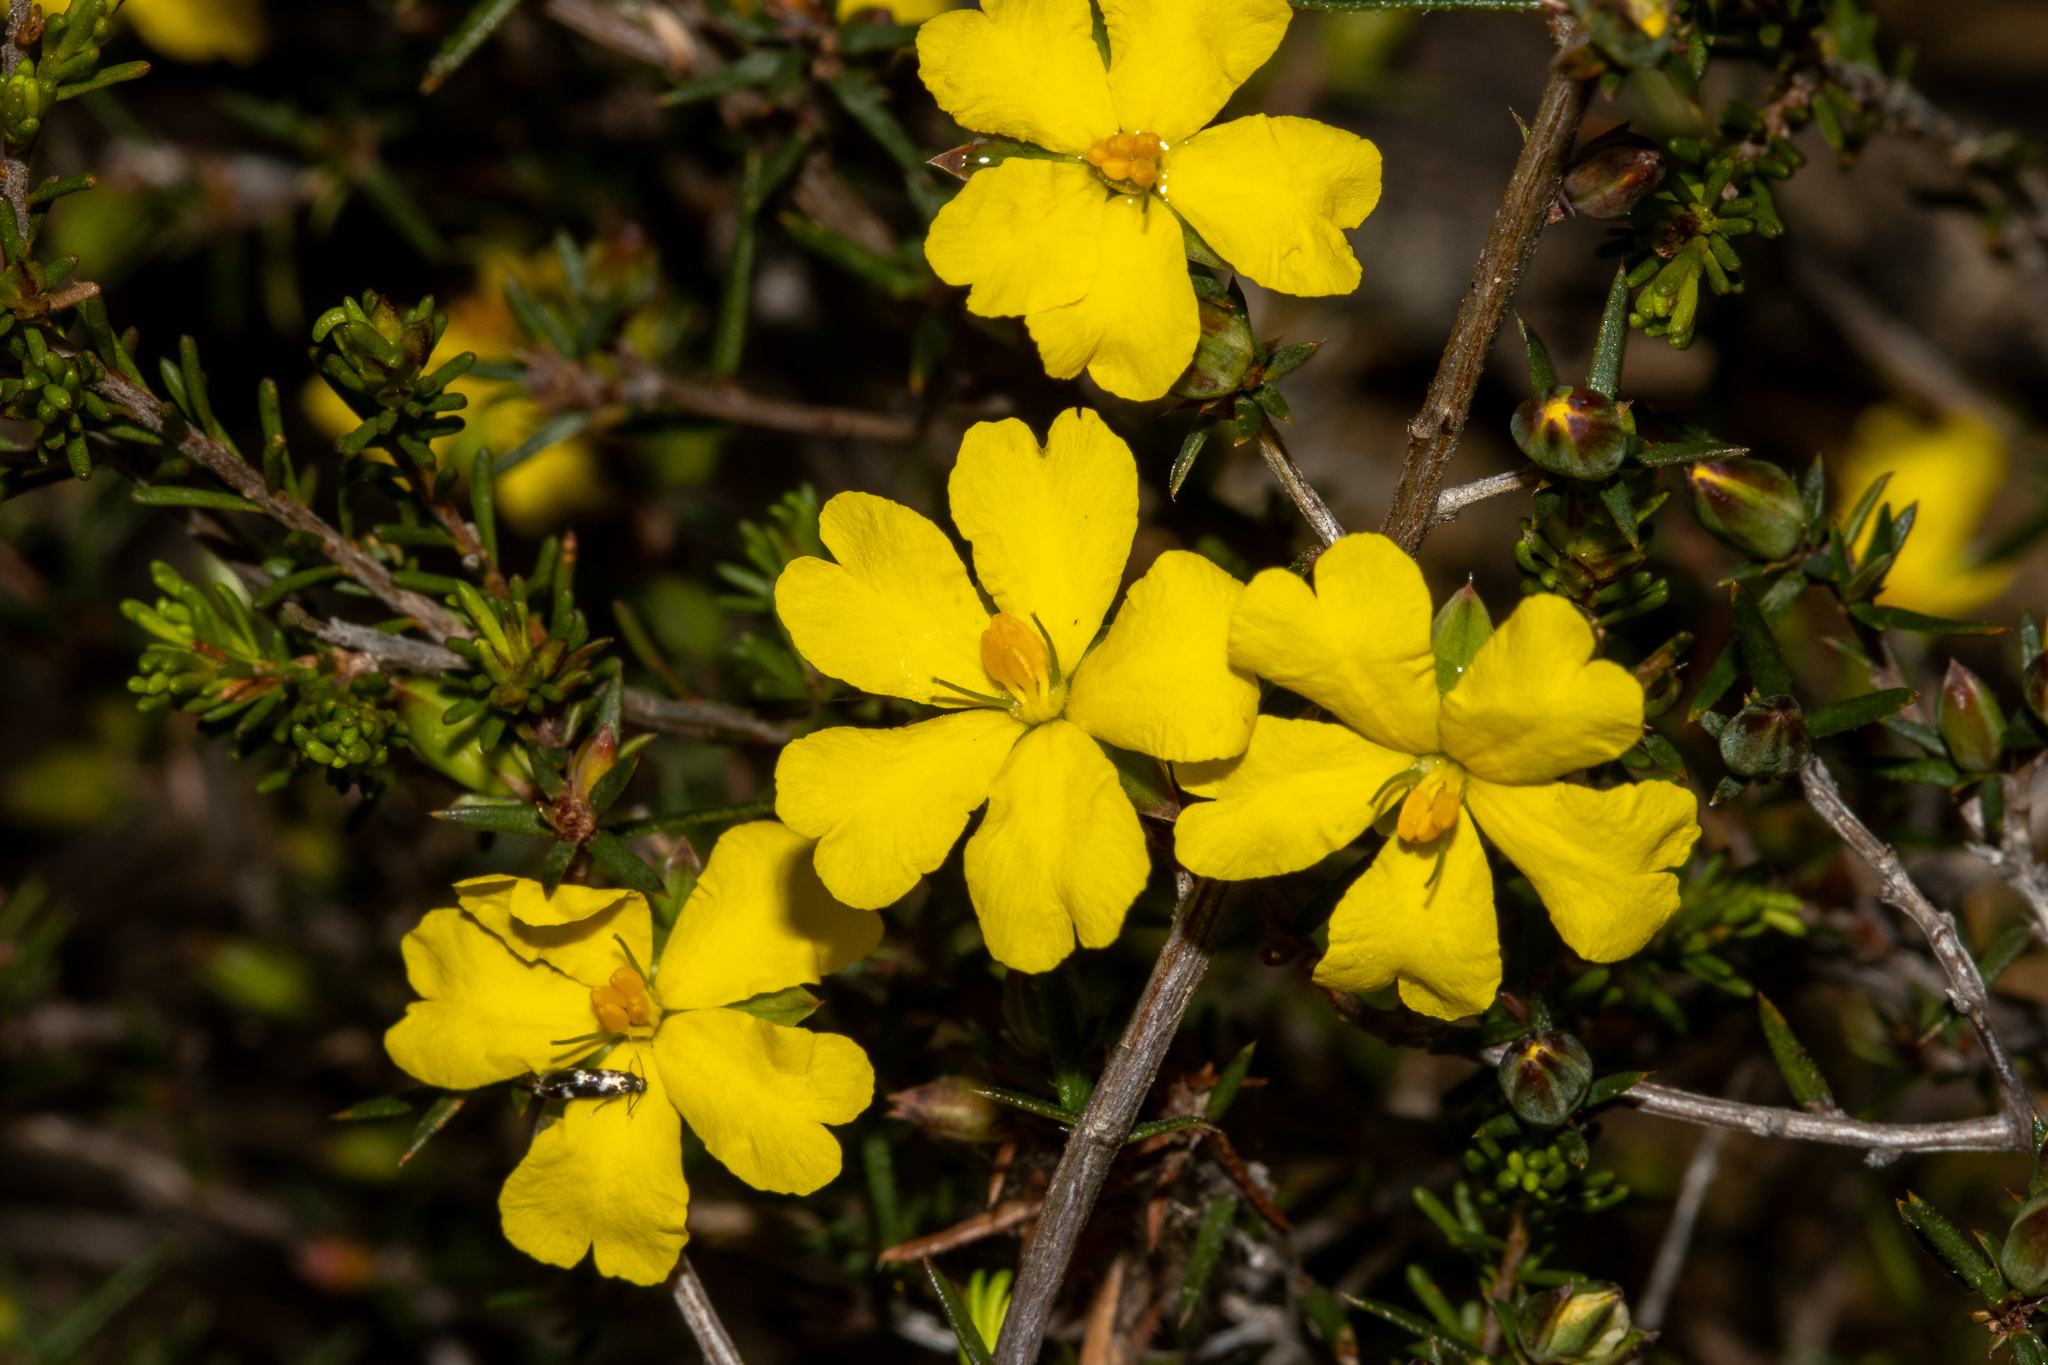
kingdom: Plantae
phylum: Tracheophyta
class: Magnoliopsida
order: Dilleniales
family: Dilleniaceae
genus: Hibbertia
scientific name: Hibbertia exutiacies
